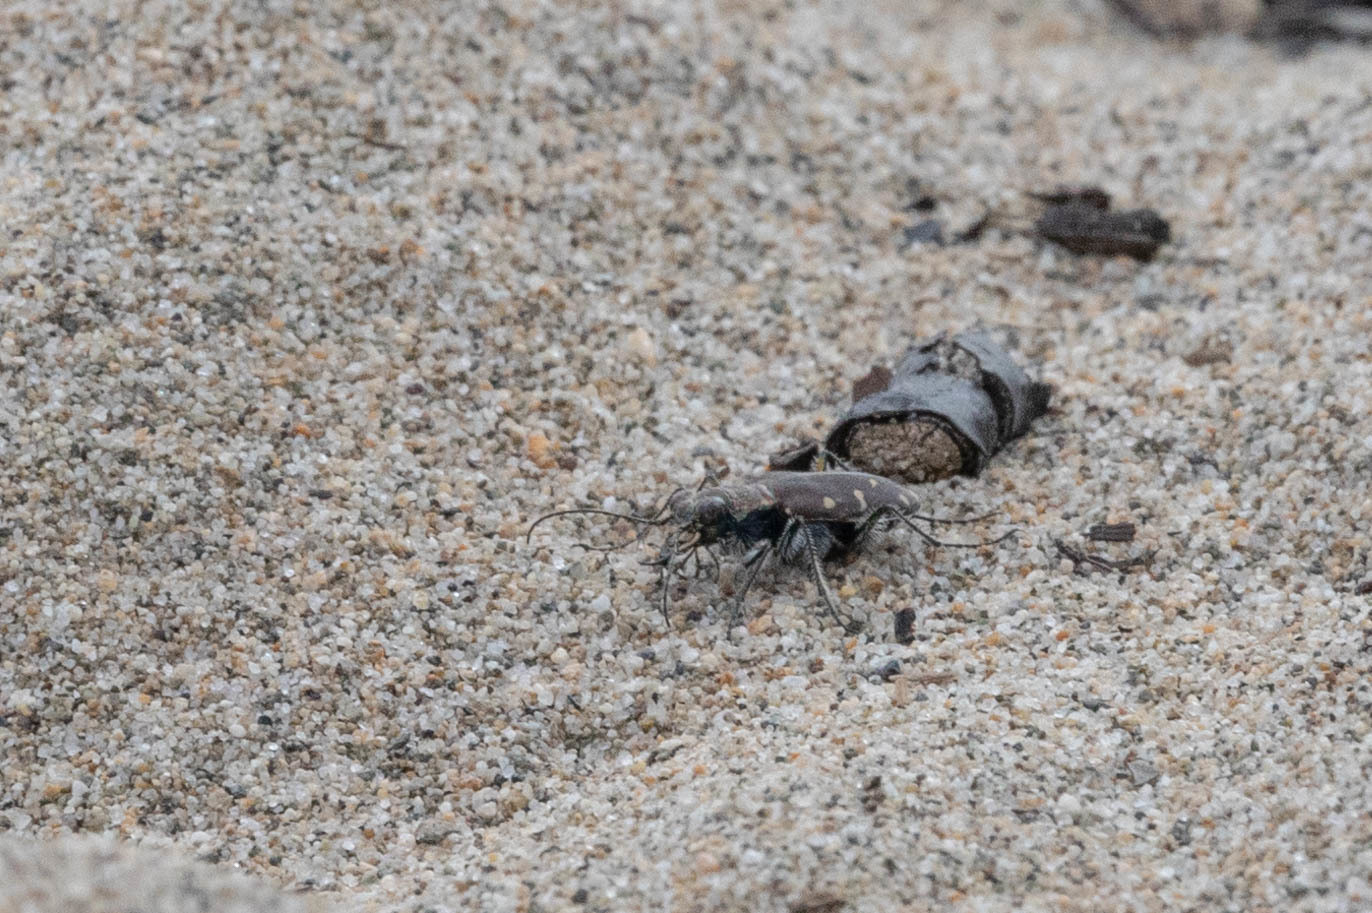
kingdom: Animalia
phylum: Arthropoda
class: Insecta
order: Coleoptera
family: Carabidae
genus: Cicindela
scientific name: Cicindela oregona
